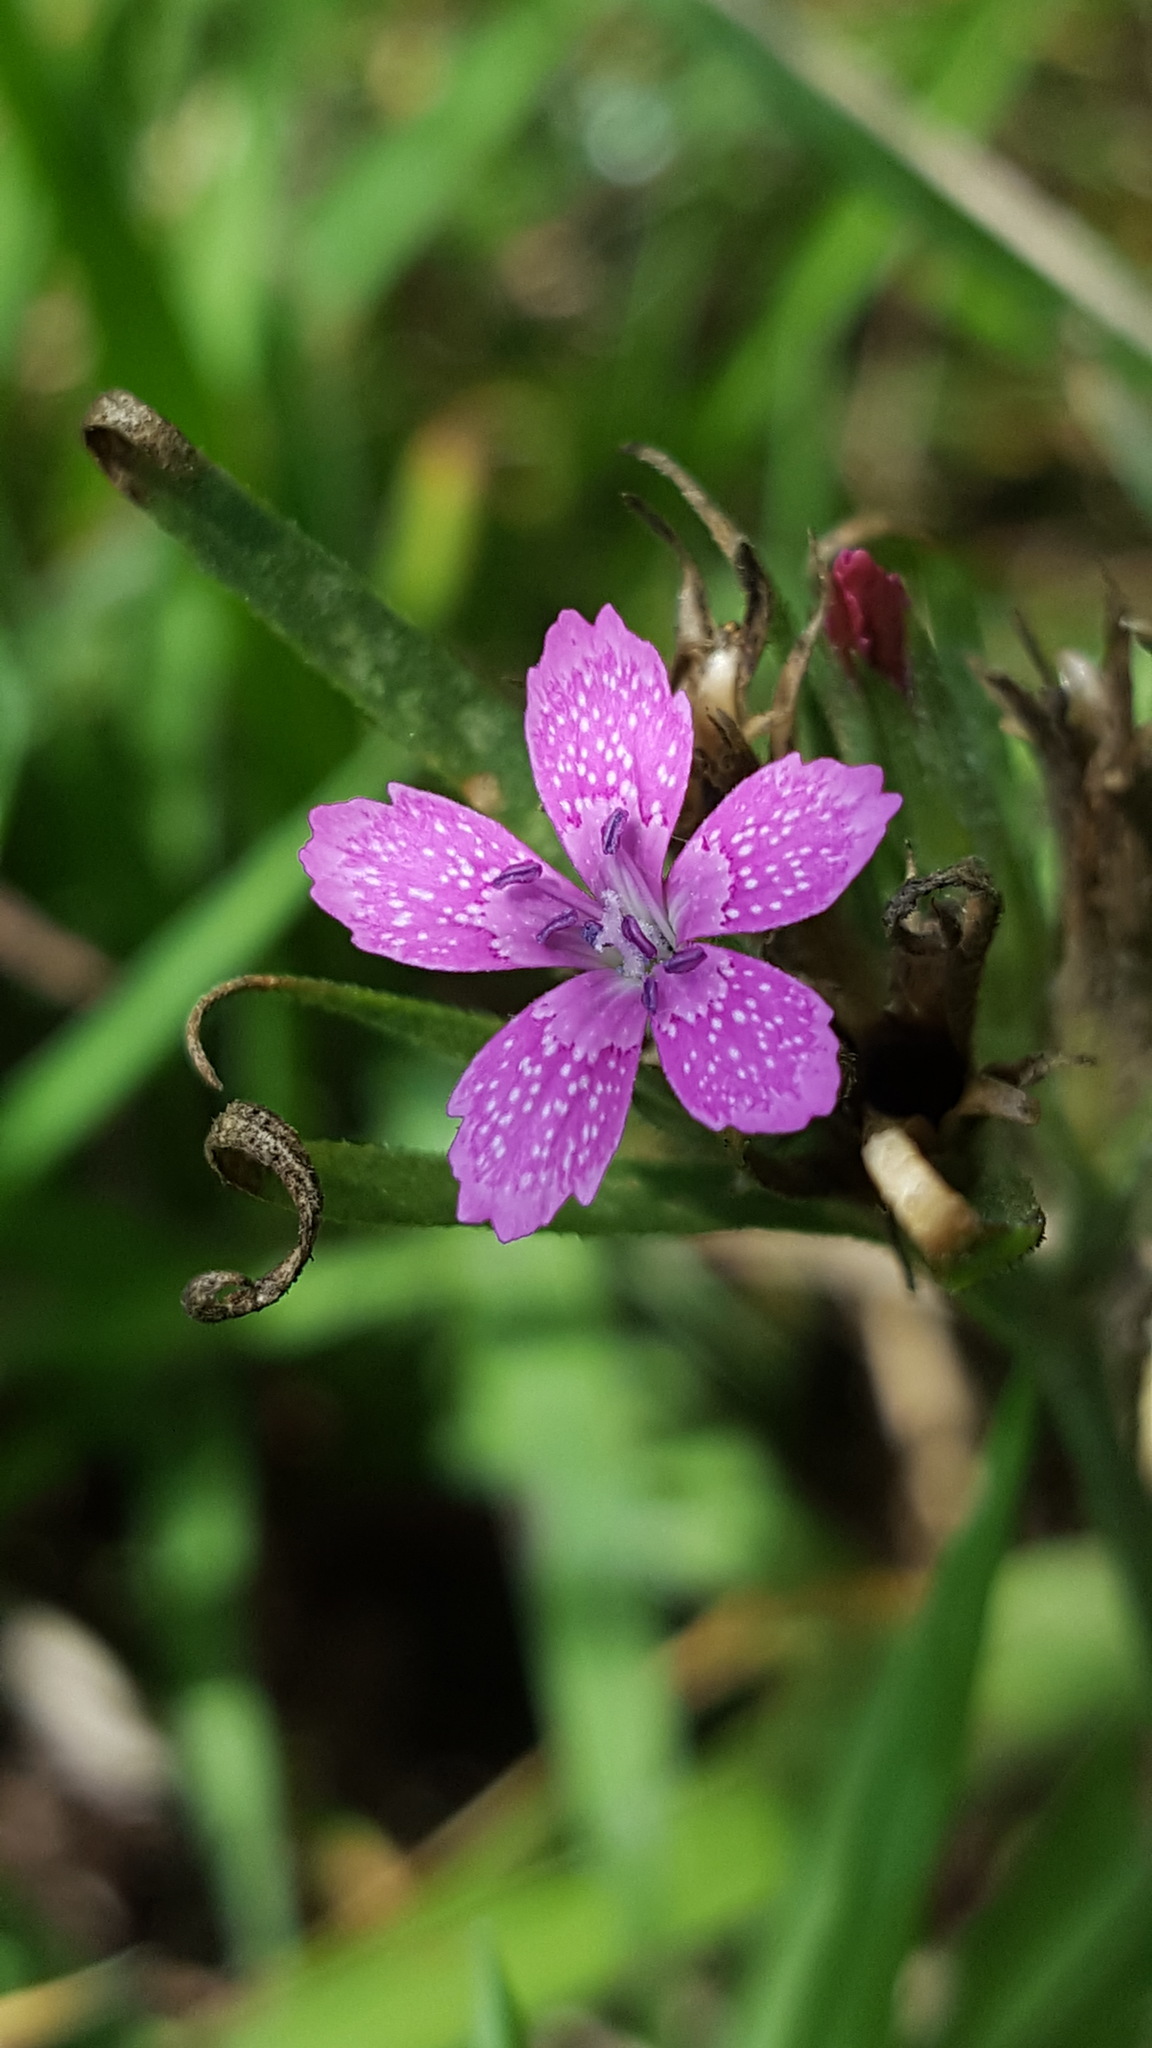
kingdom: Plantae
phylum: Tracheophyta
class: Magnoliopsida
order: Caryophyllales
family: Caryophyllaceae
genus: Dianthus
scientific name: Dianthus armeria
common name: Deptford pink
